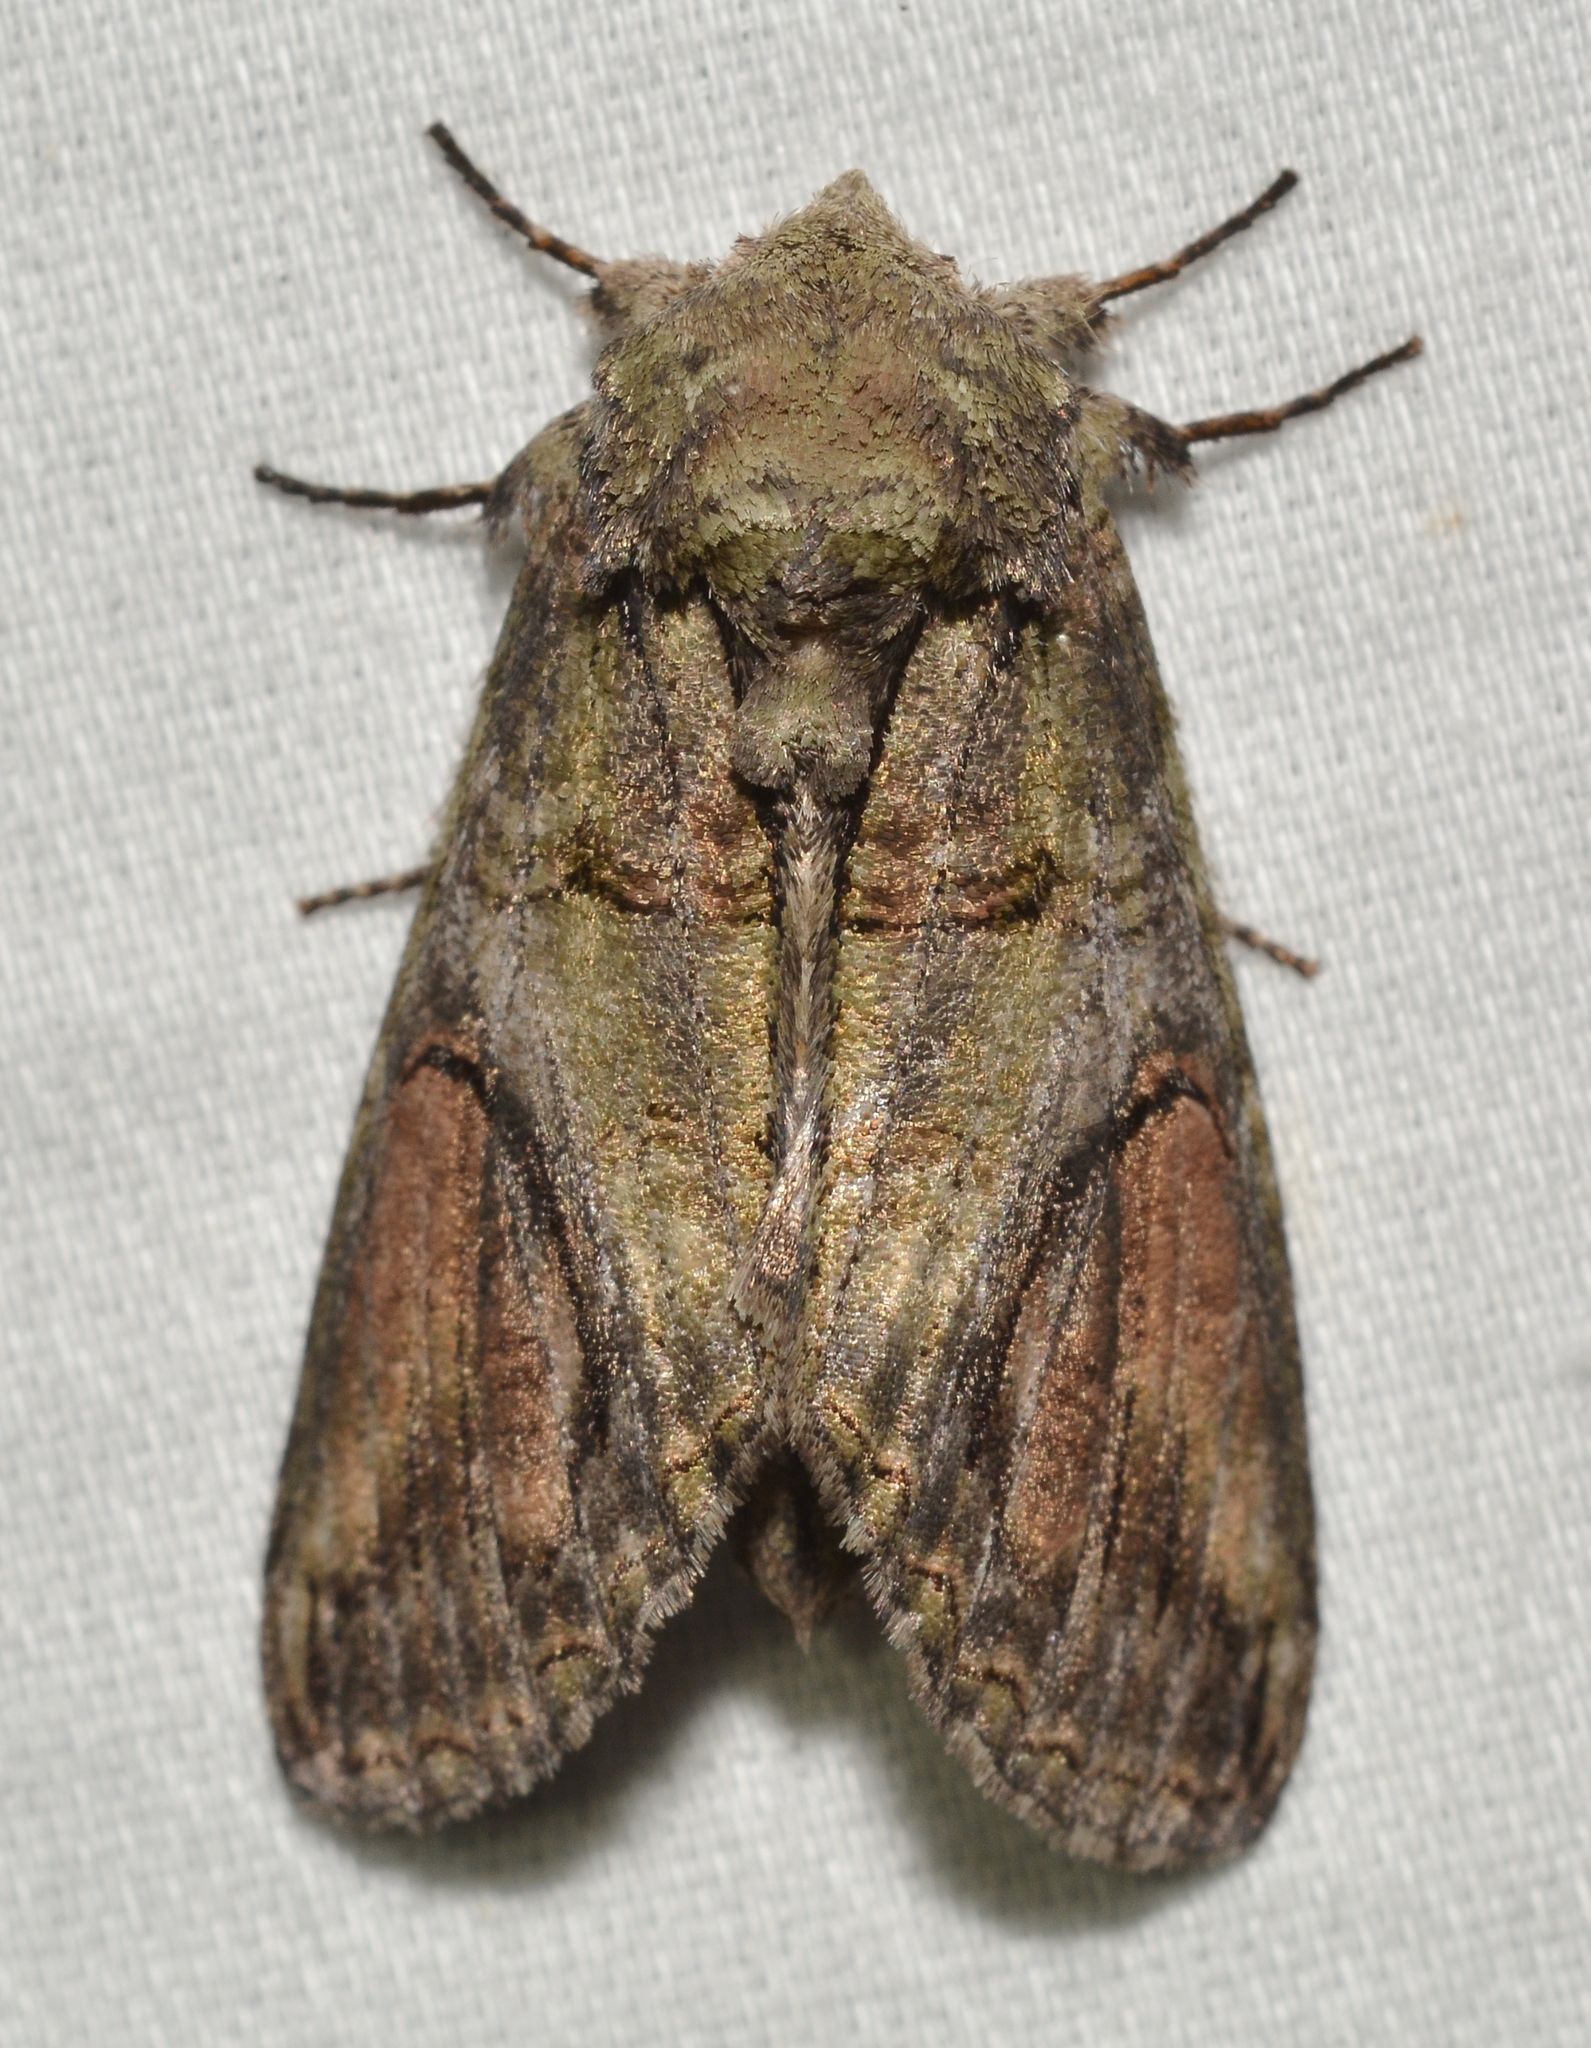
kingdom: Animalia
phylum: Arthropoda
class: Insecta
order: Lepidoptera
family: Notodontidae
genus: Heterocampa
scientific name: Heterocampa obliqua
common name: Oblique heterocampa
